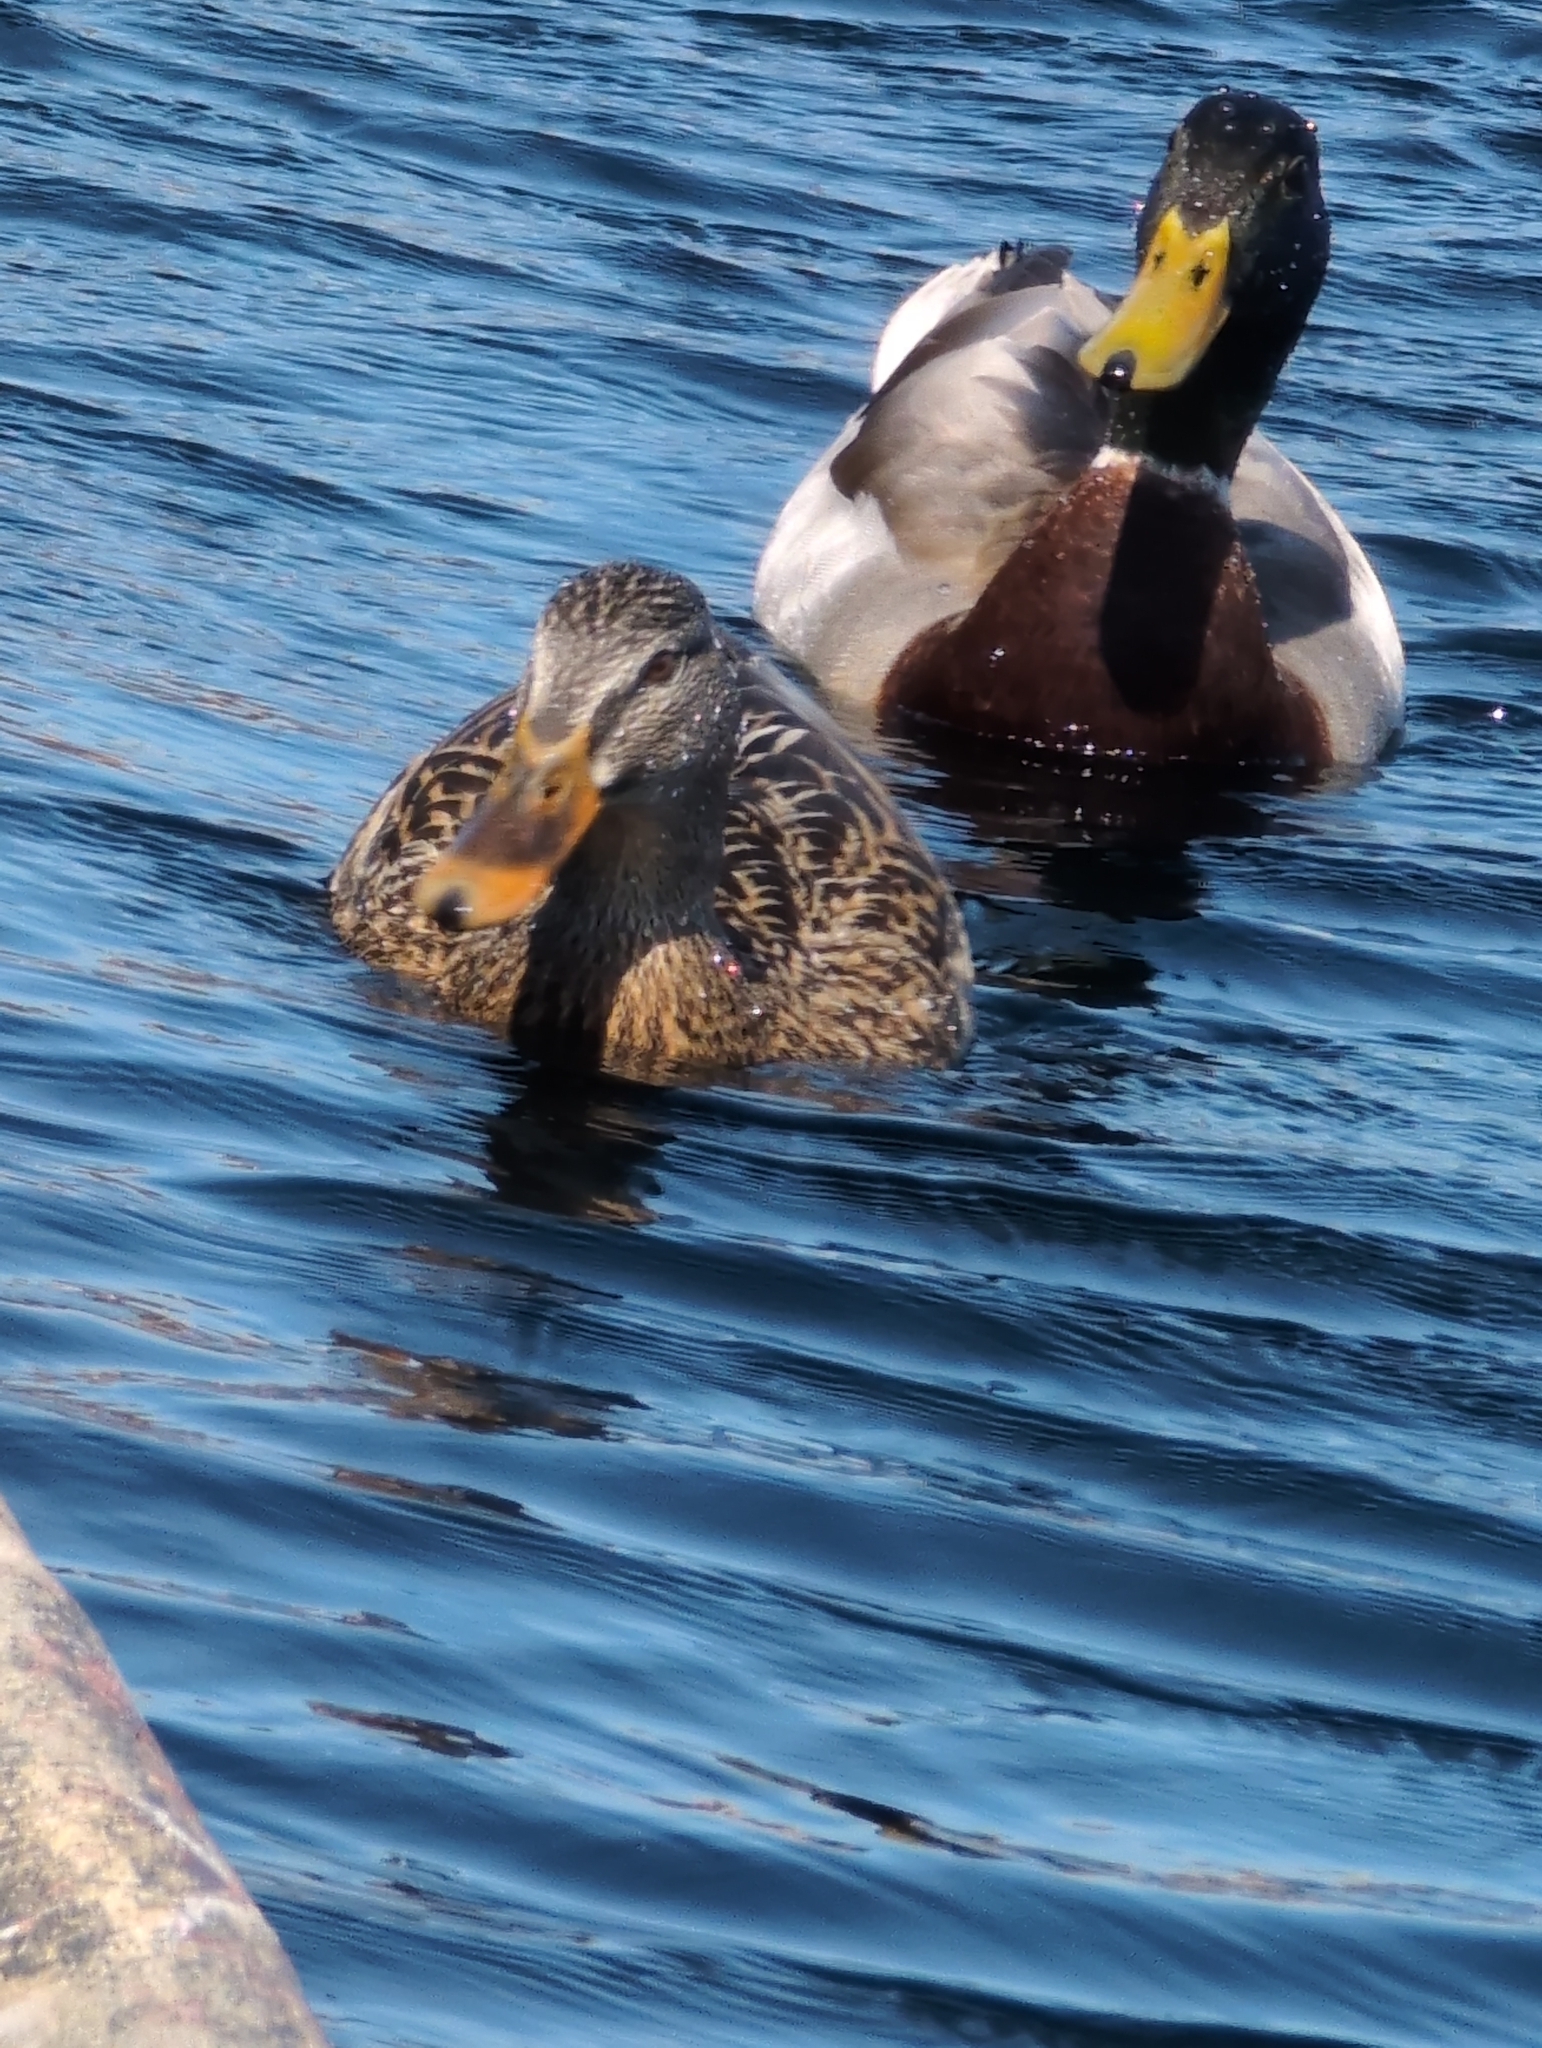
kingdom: Animalia
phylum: Chordata
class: Aves
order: Anseriformes
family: Anatidae
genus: Anas
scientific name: Anas platyrhynchos
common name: Mallard
